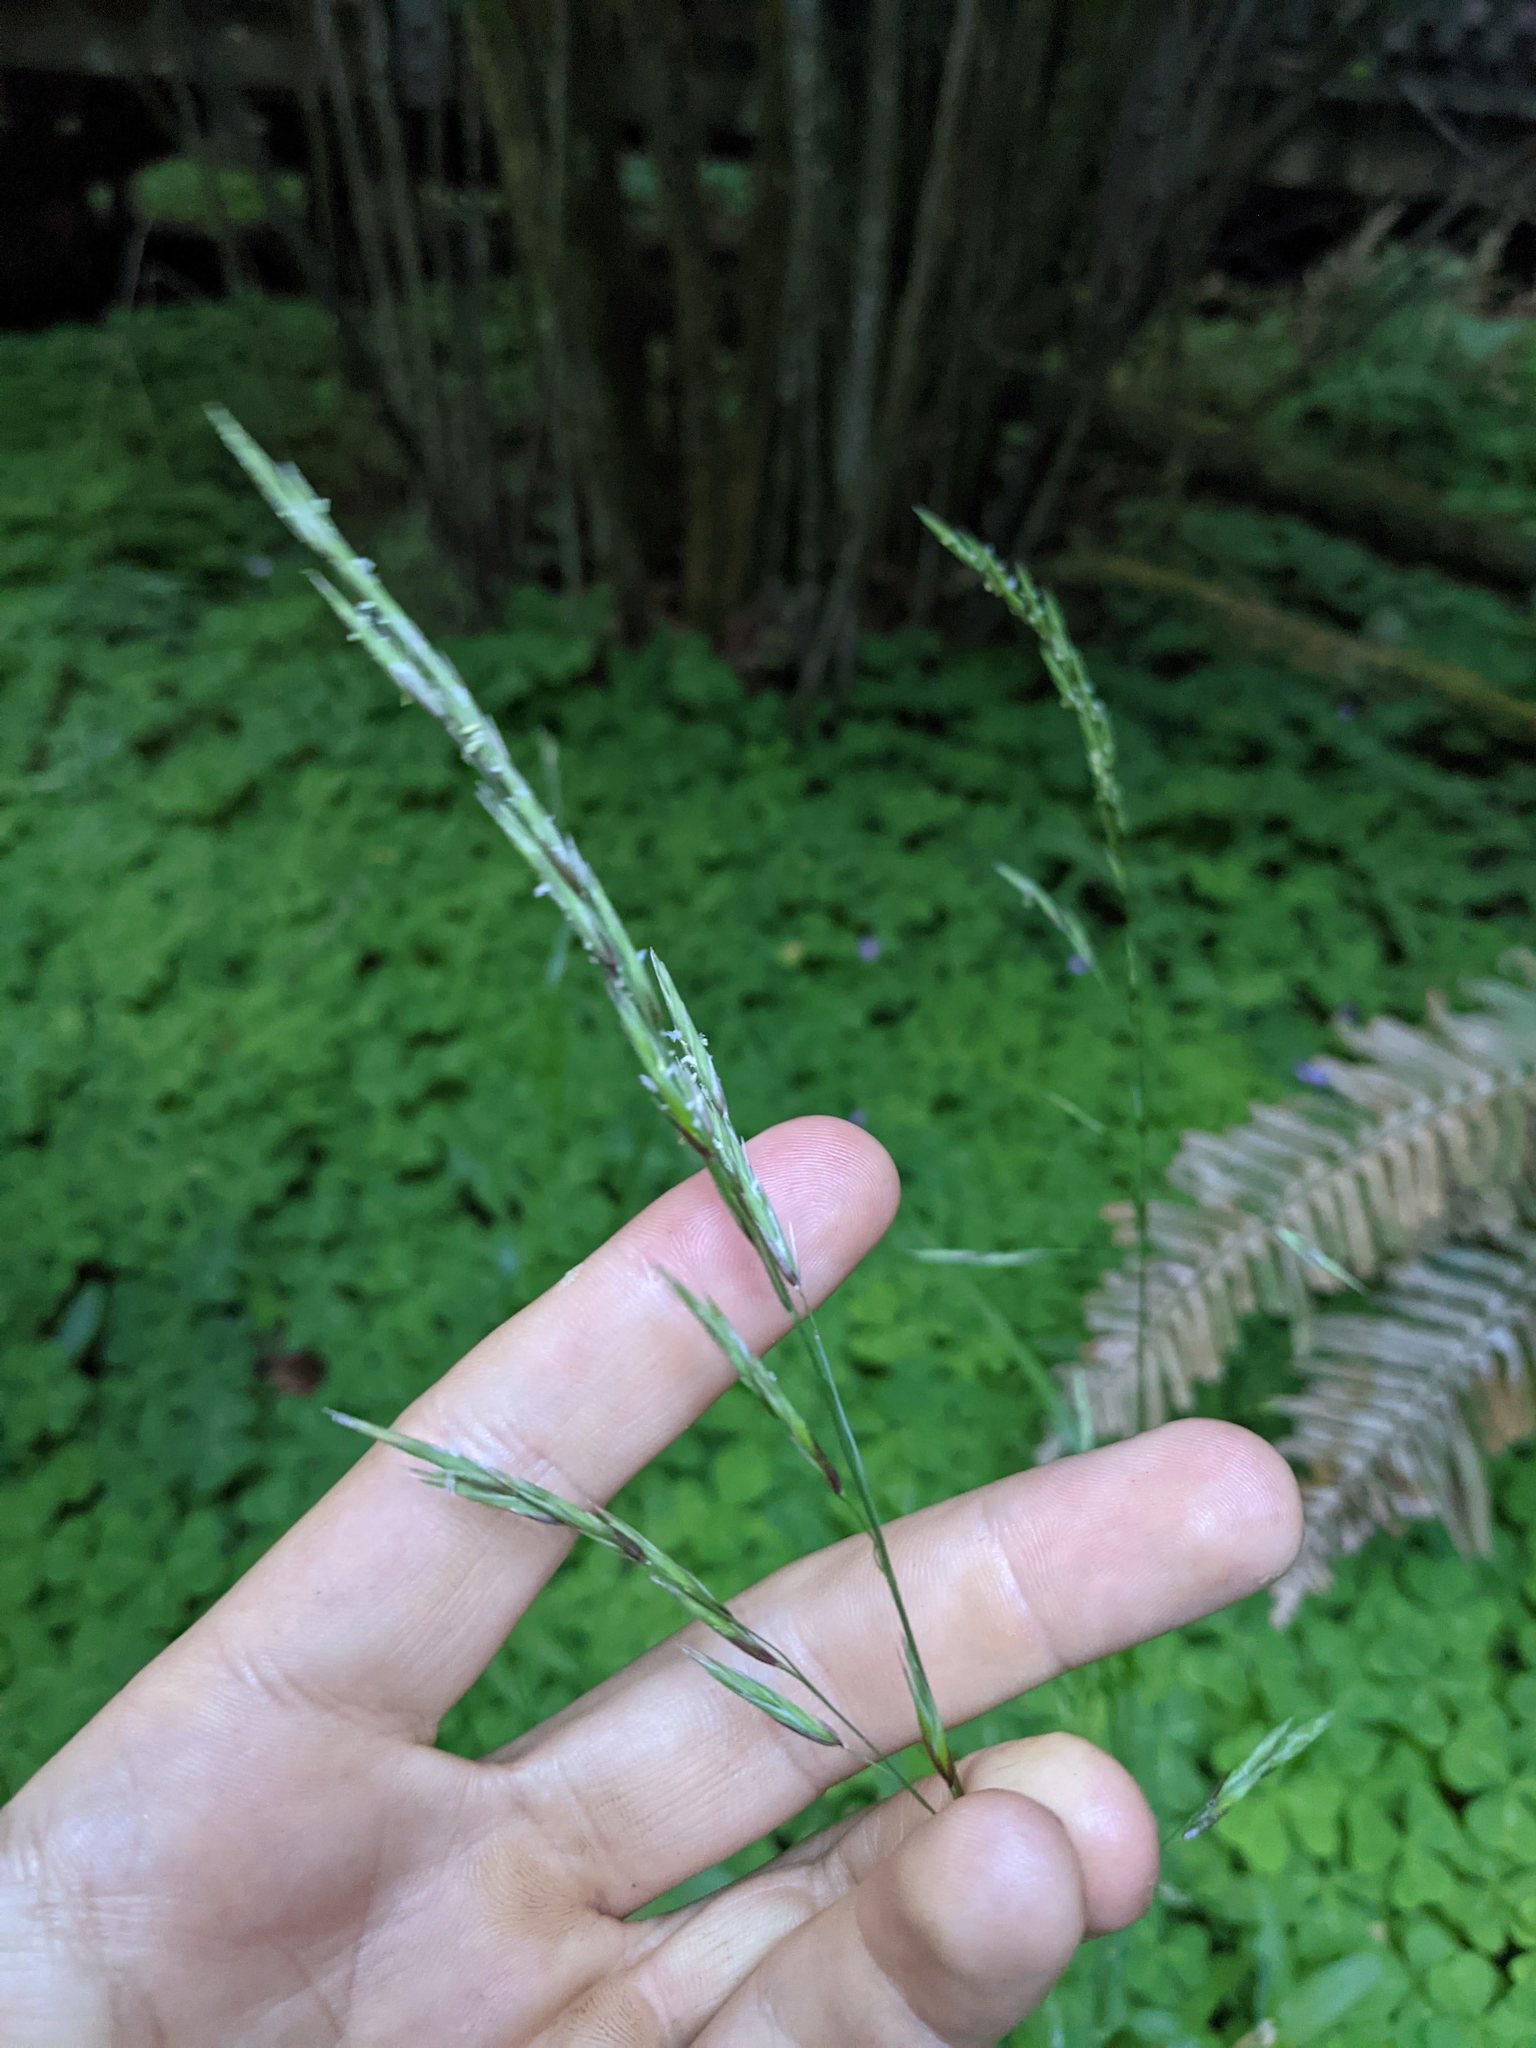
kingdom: Plantae
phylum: Tracheophyta
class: Liliopsida
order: Poales
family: Poaceae
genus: Melica
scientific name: Melica subulata
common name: Tapered oniongrass
